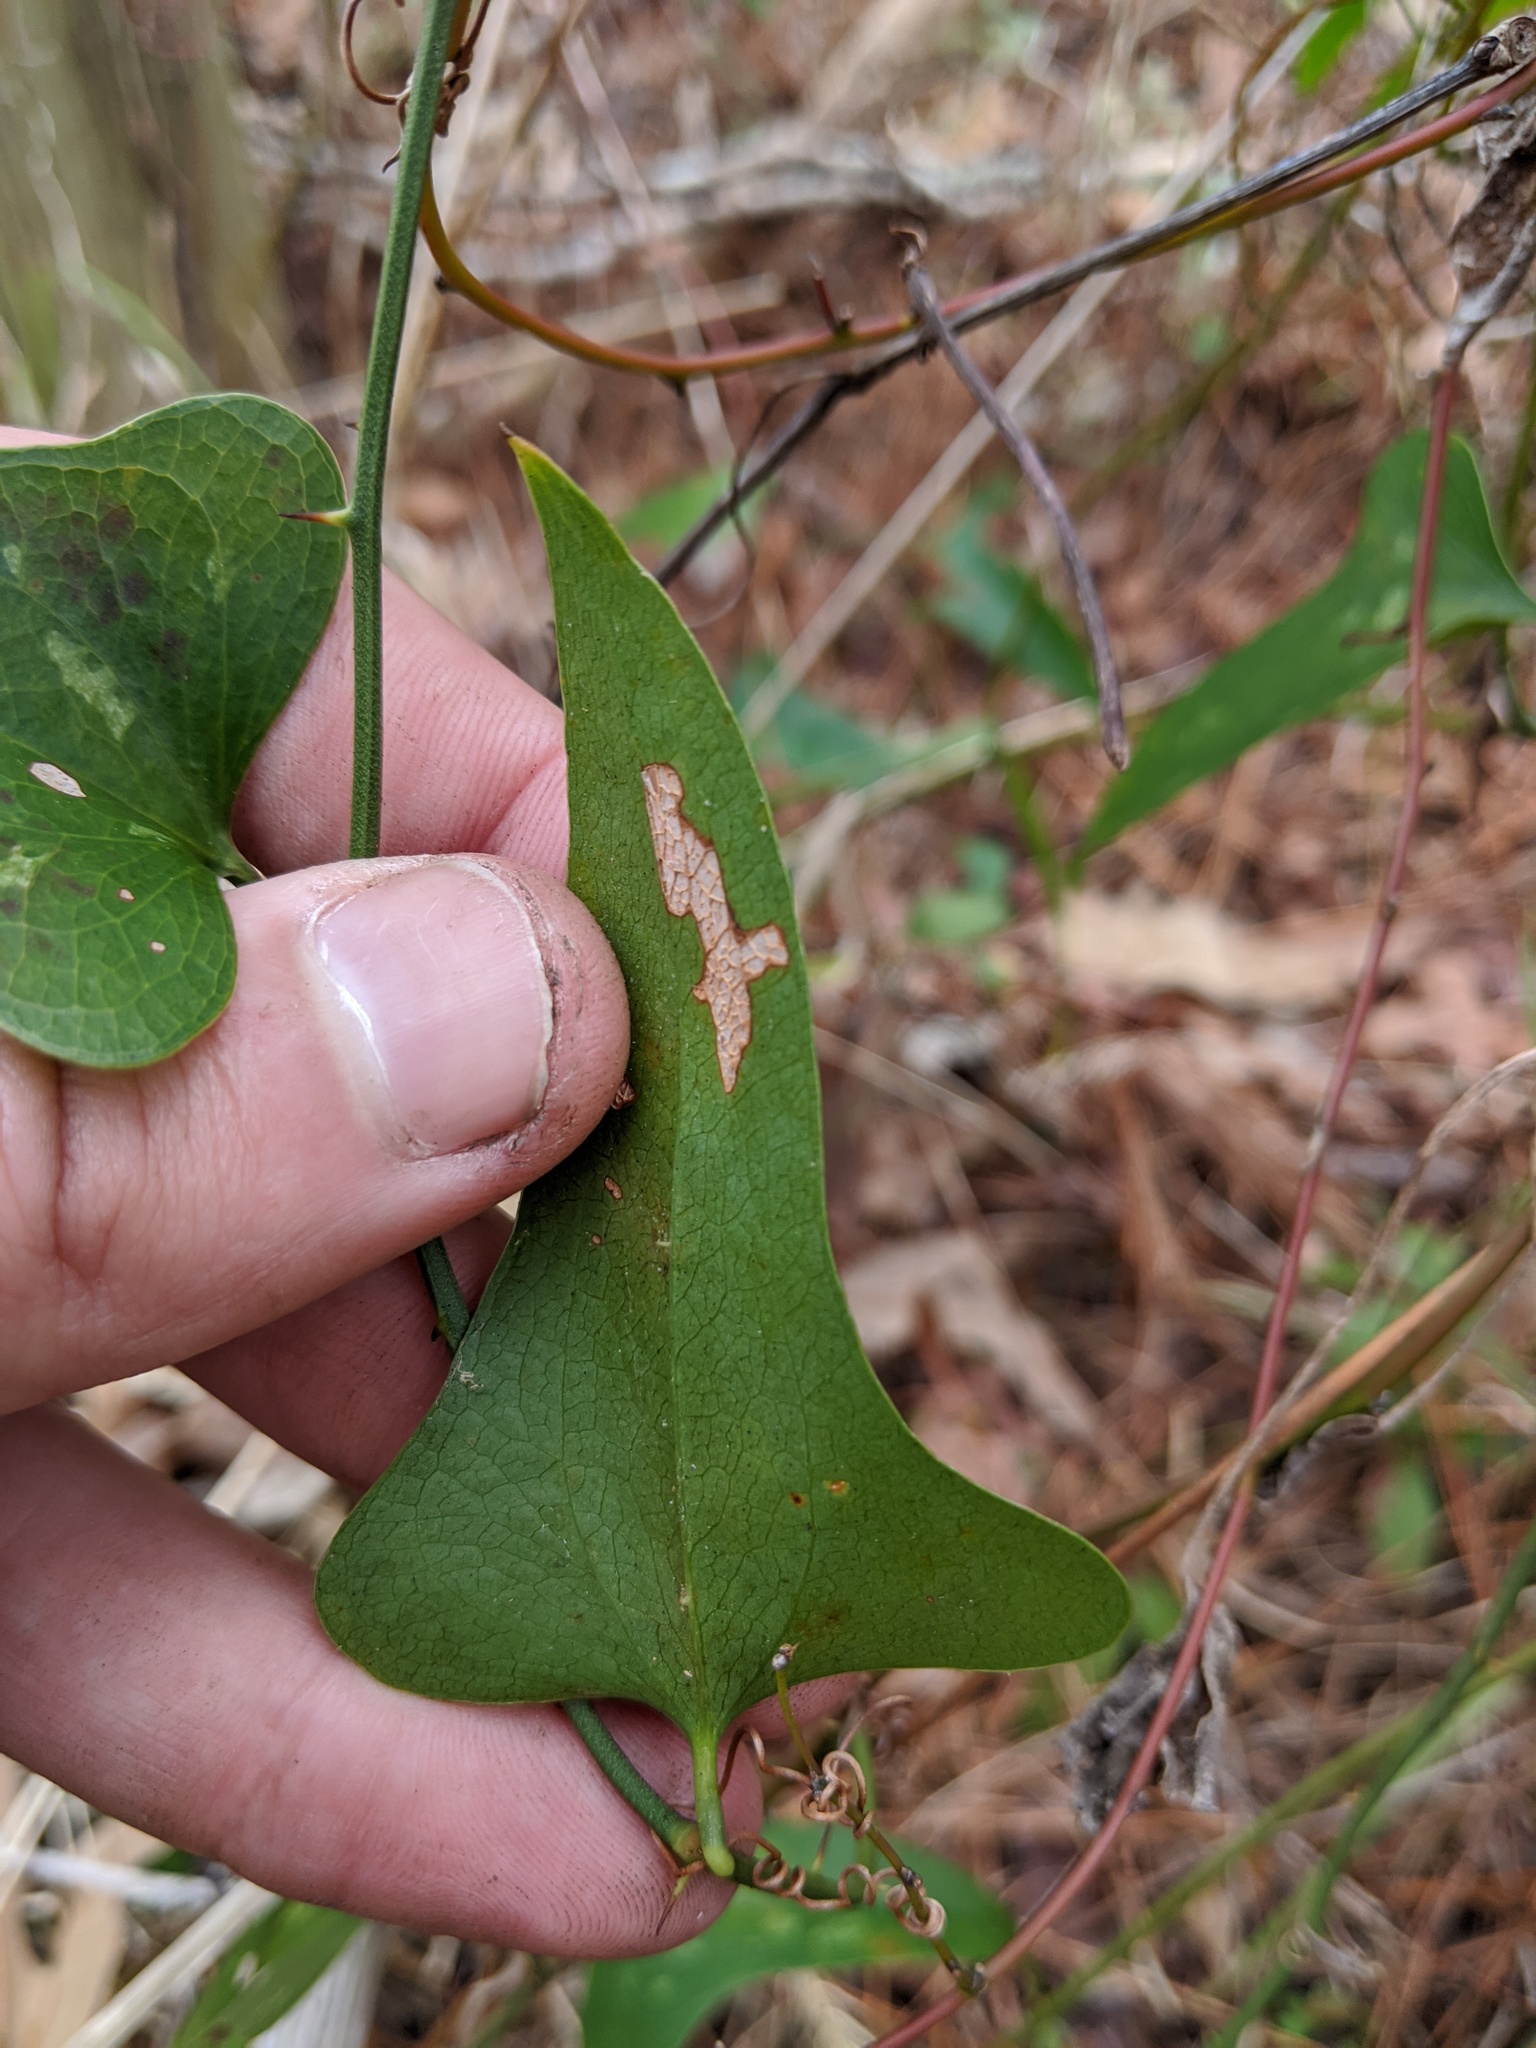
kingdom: Plantae
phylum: Tracheophyta
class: Liliopsida
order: Liliales
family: Smilacaceae
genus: Smilax
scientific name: Smilax bona-nox
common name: Catbrier
